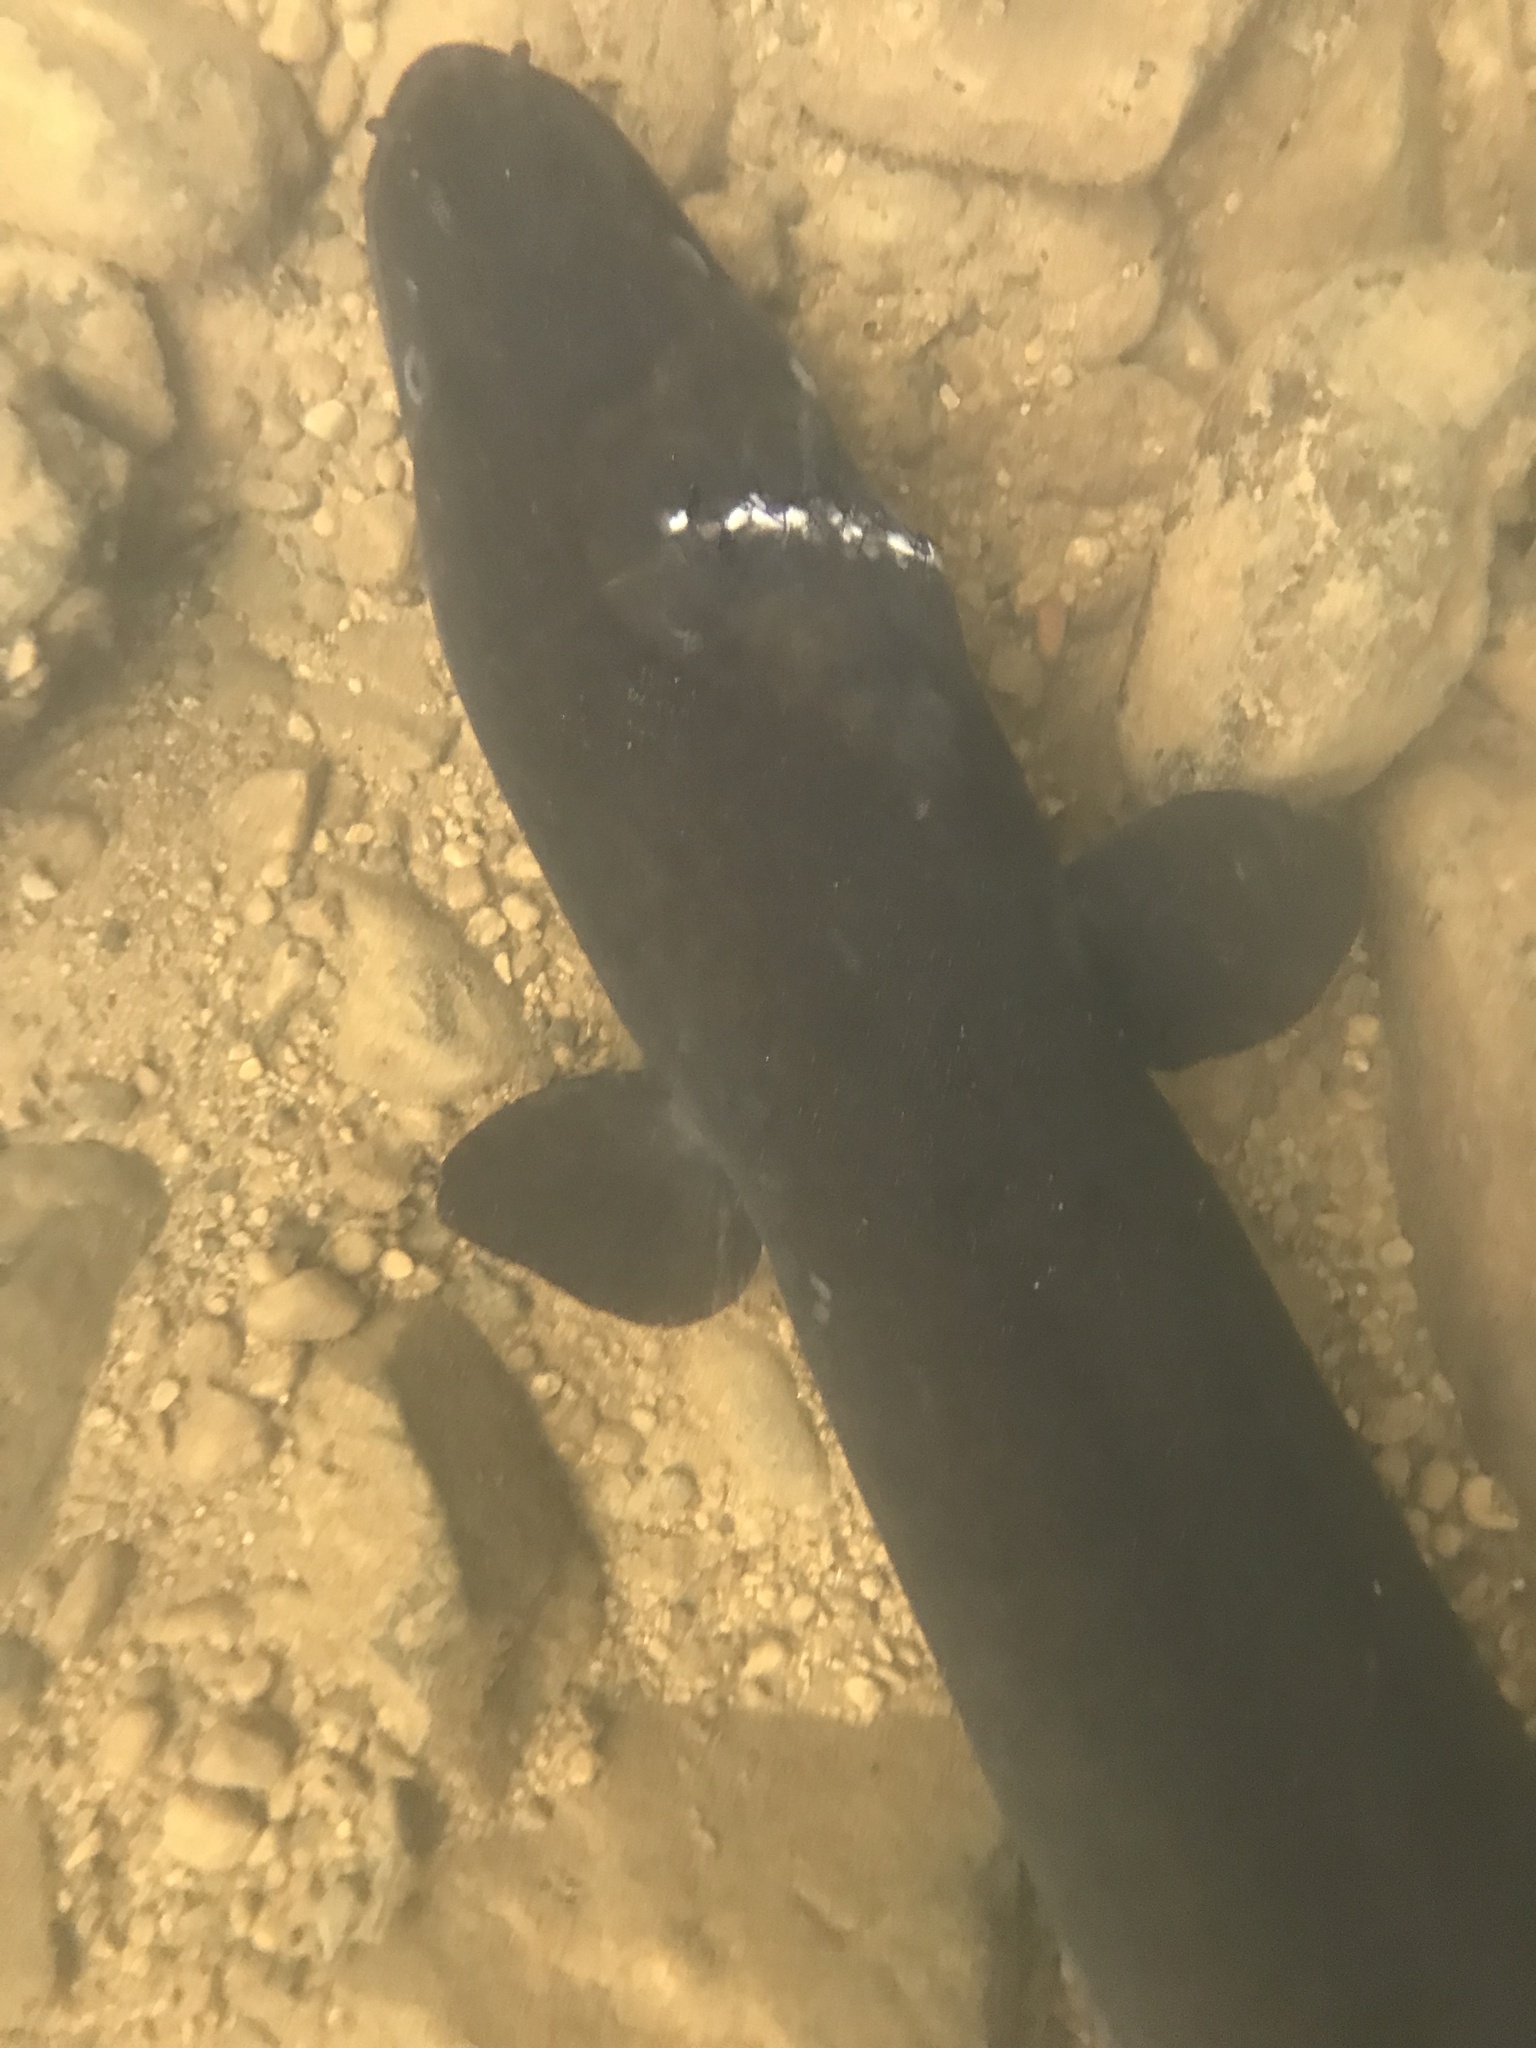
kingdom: Animalia
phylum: Chordata
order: Anguilliformes
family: Anguillidae
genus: Anguilla
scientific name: Anguilla dieffenbachii
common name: New zealand longfin eel
